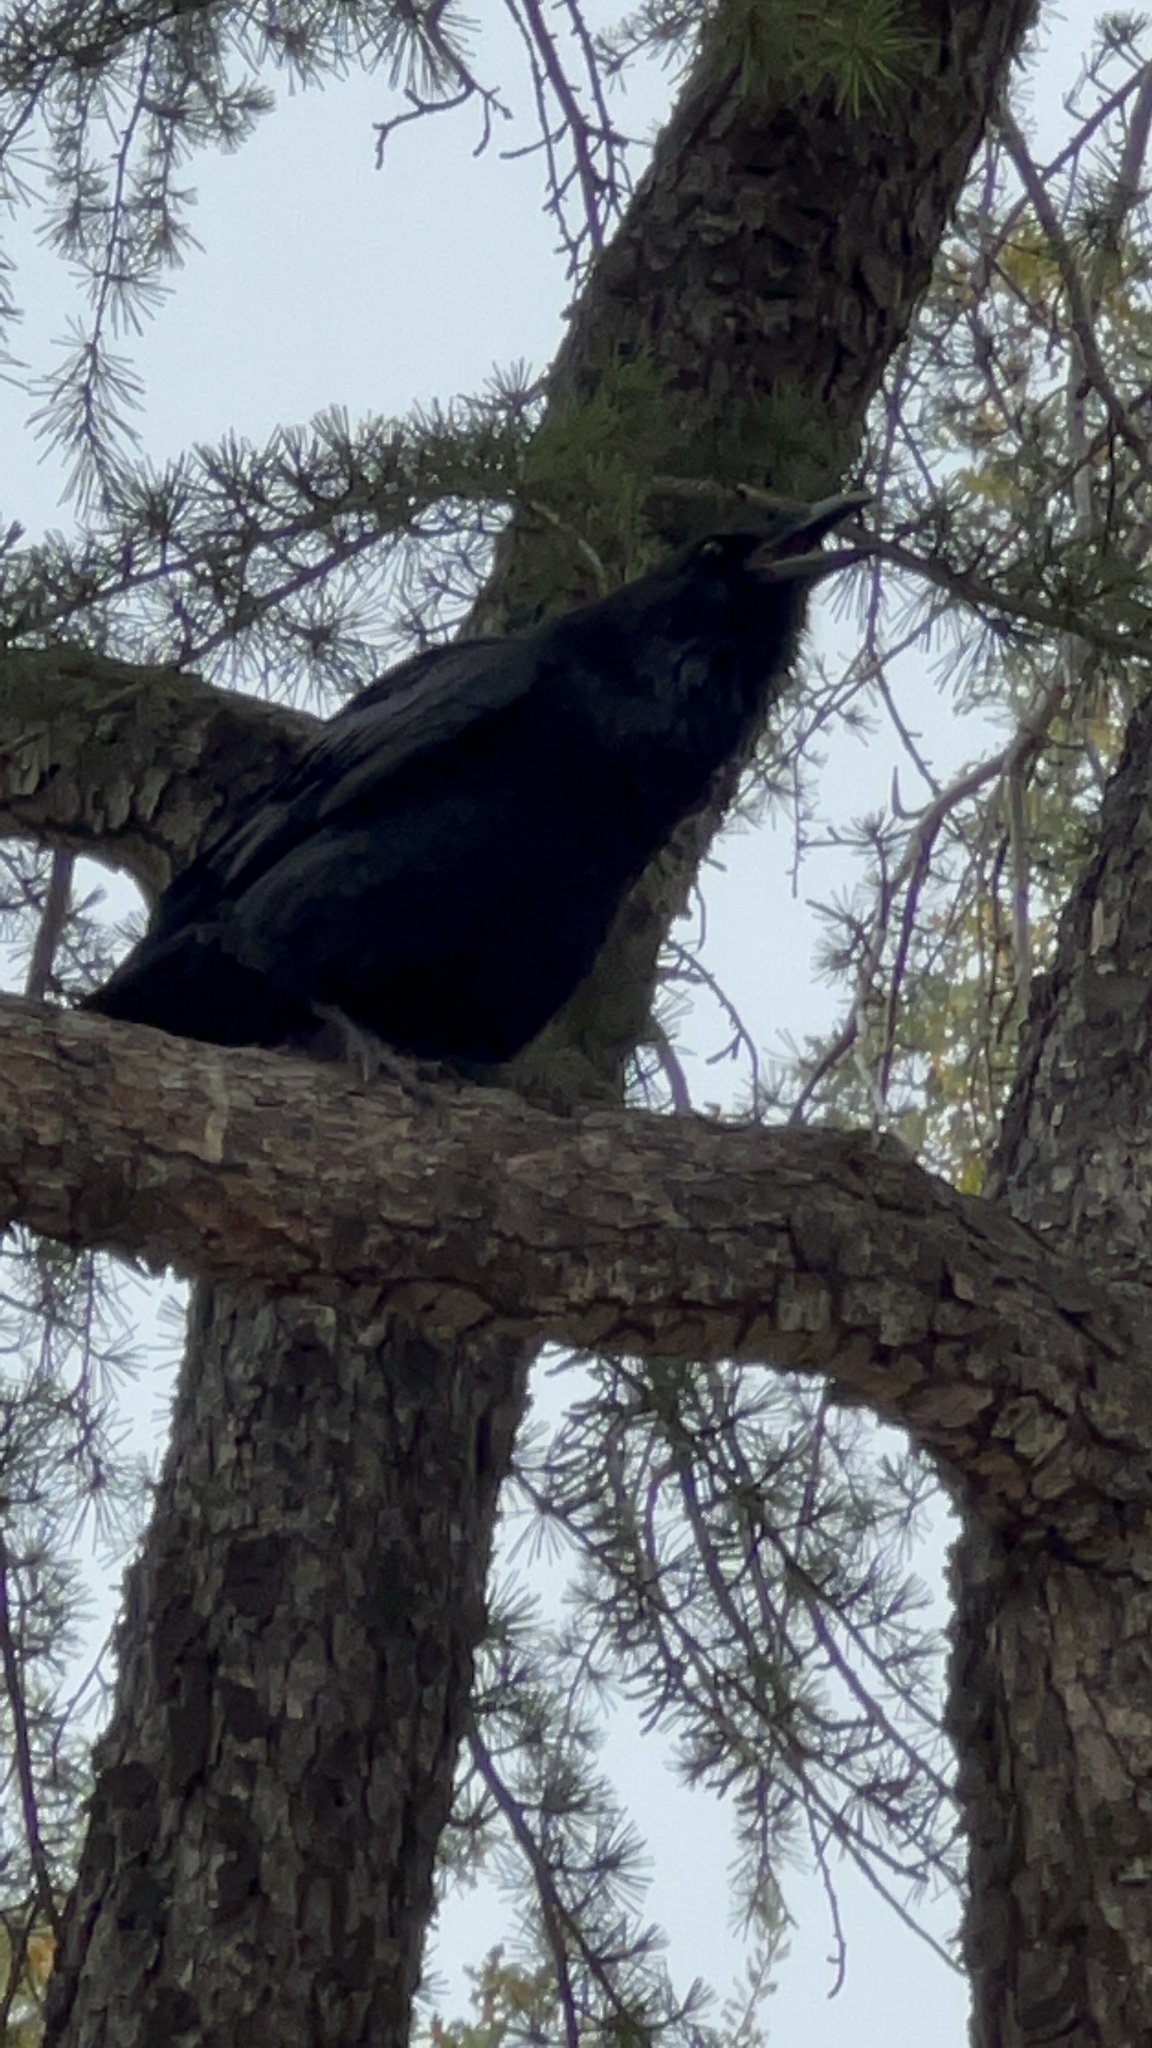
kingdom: Animalia
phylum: Chordata
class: Aves
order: Passeriformes
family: Corvidae
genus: Corvus
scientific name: Corvus corax
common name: Common raven
